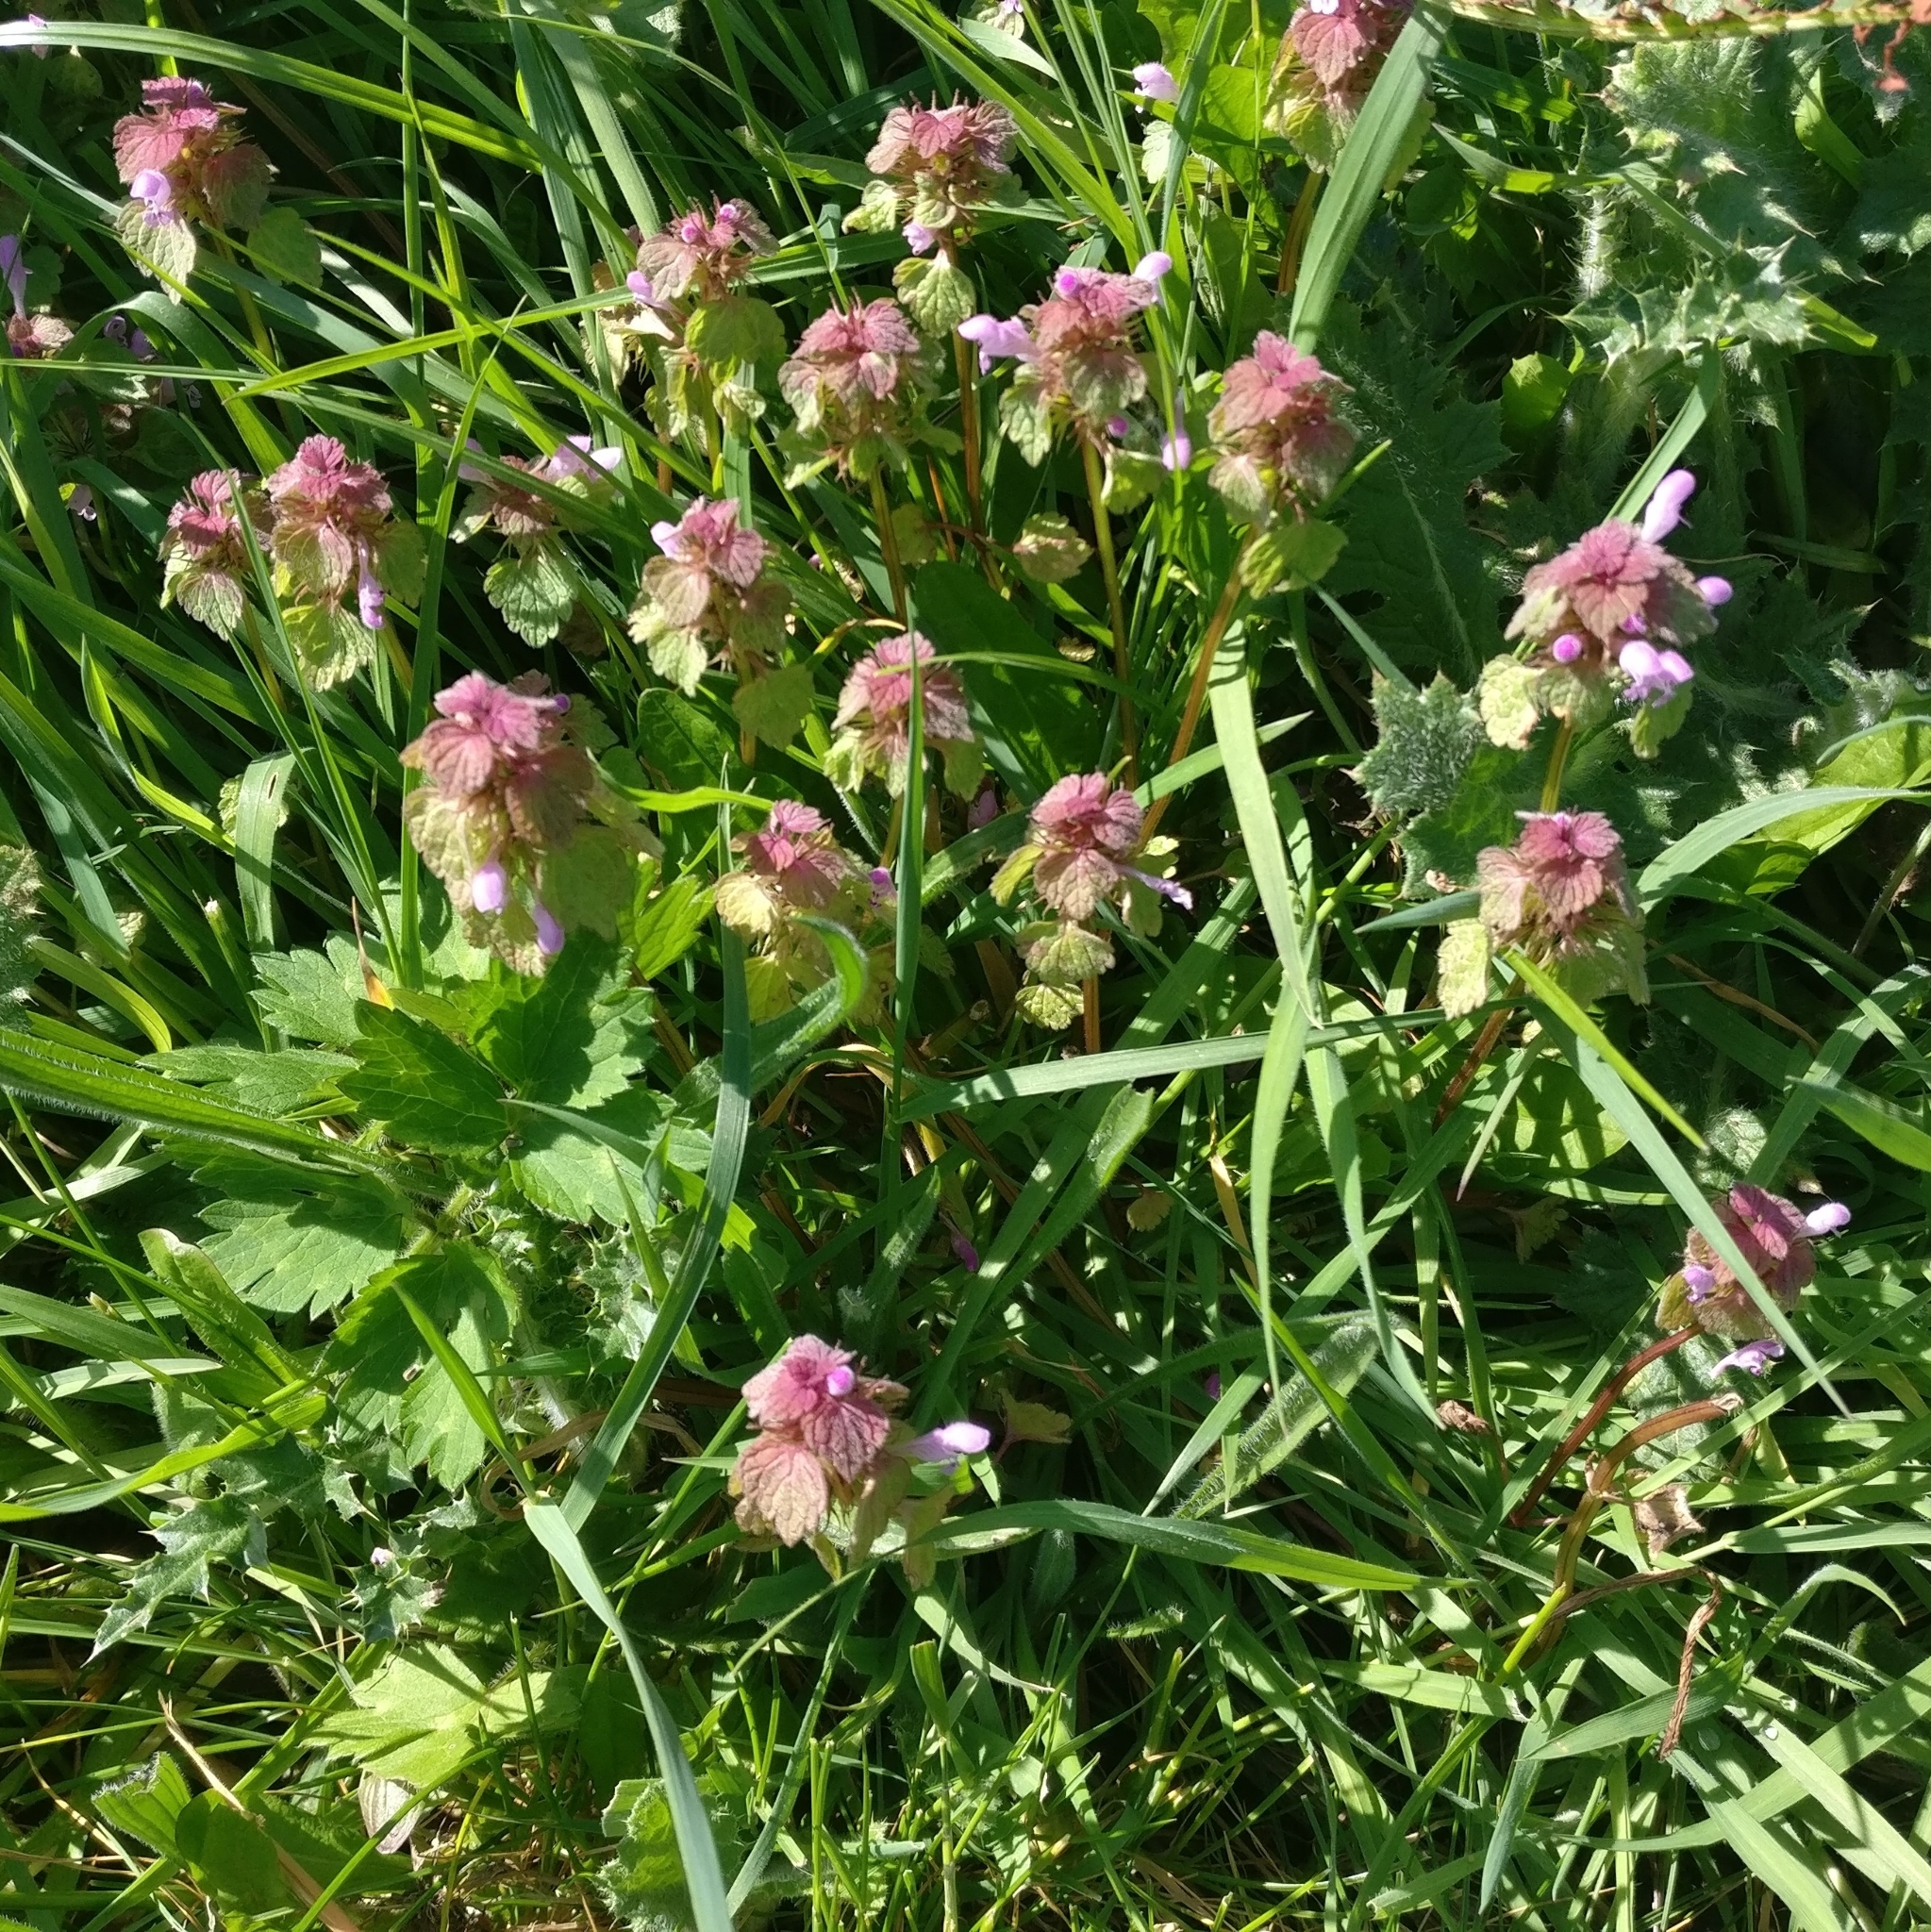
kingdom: Plantae
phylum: Tracheophyta
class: Magnoliopsida
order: Lamiales
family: Lamiaceae
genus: Lamium
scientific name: Lamium purpureum
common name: Red dead-nettle
